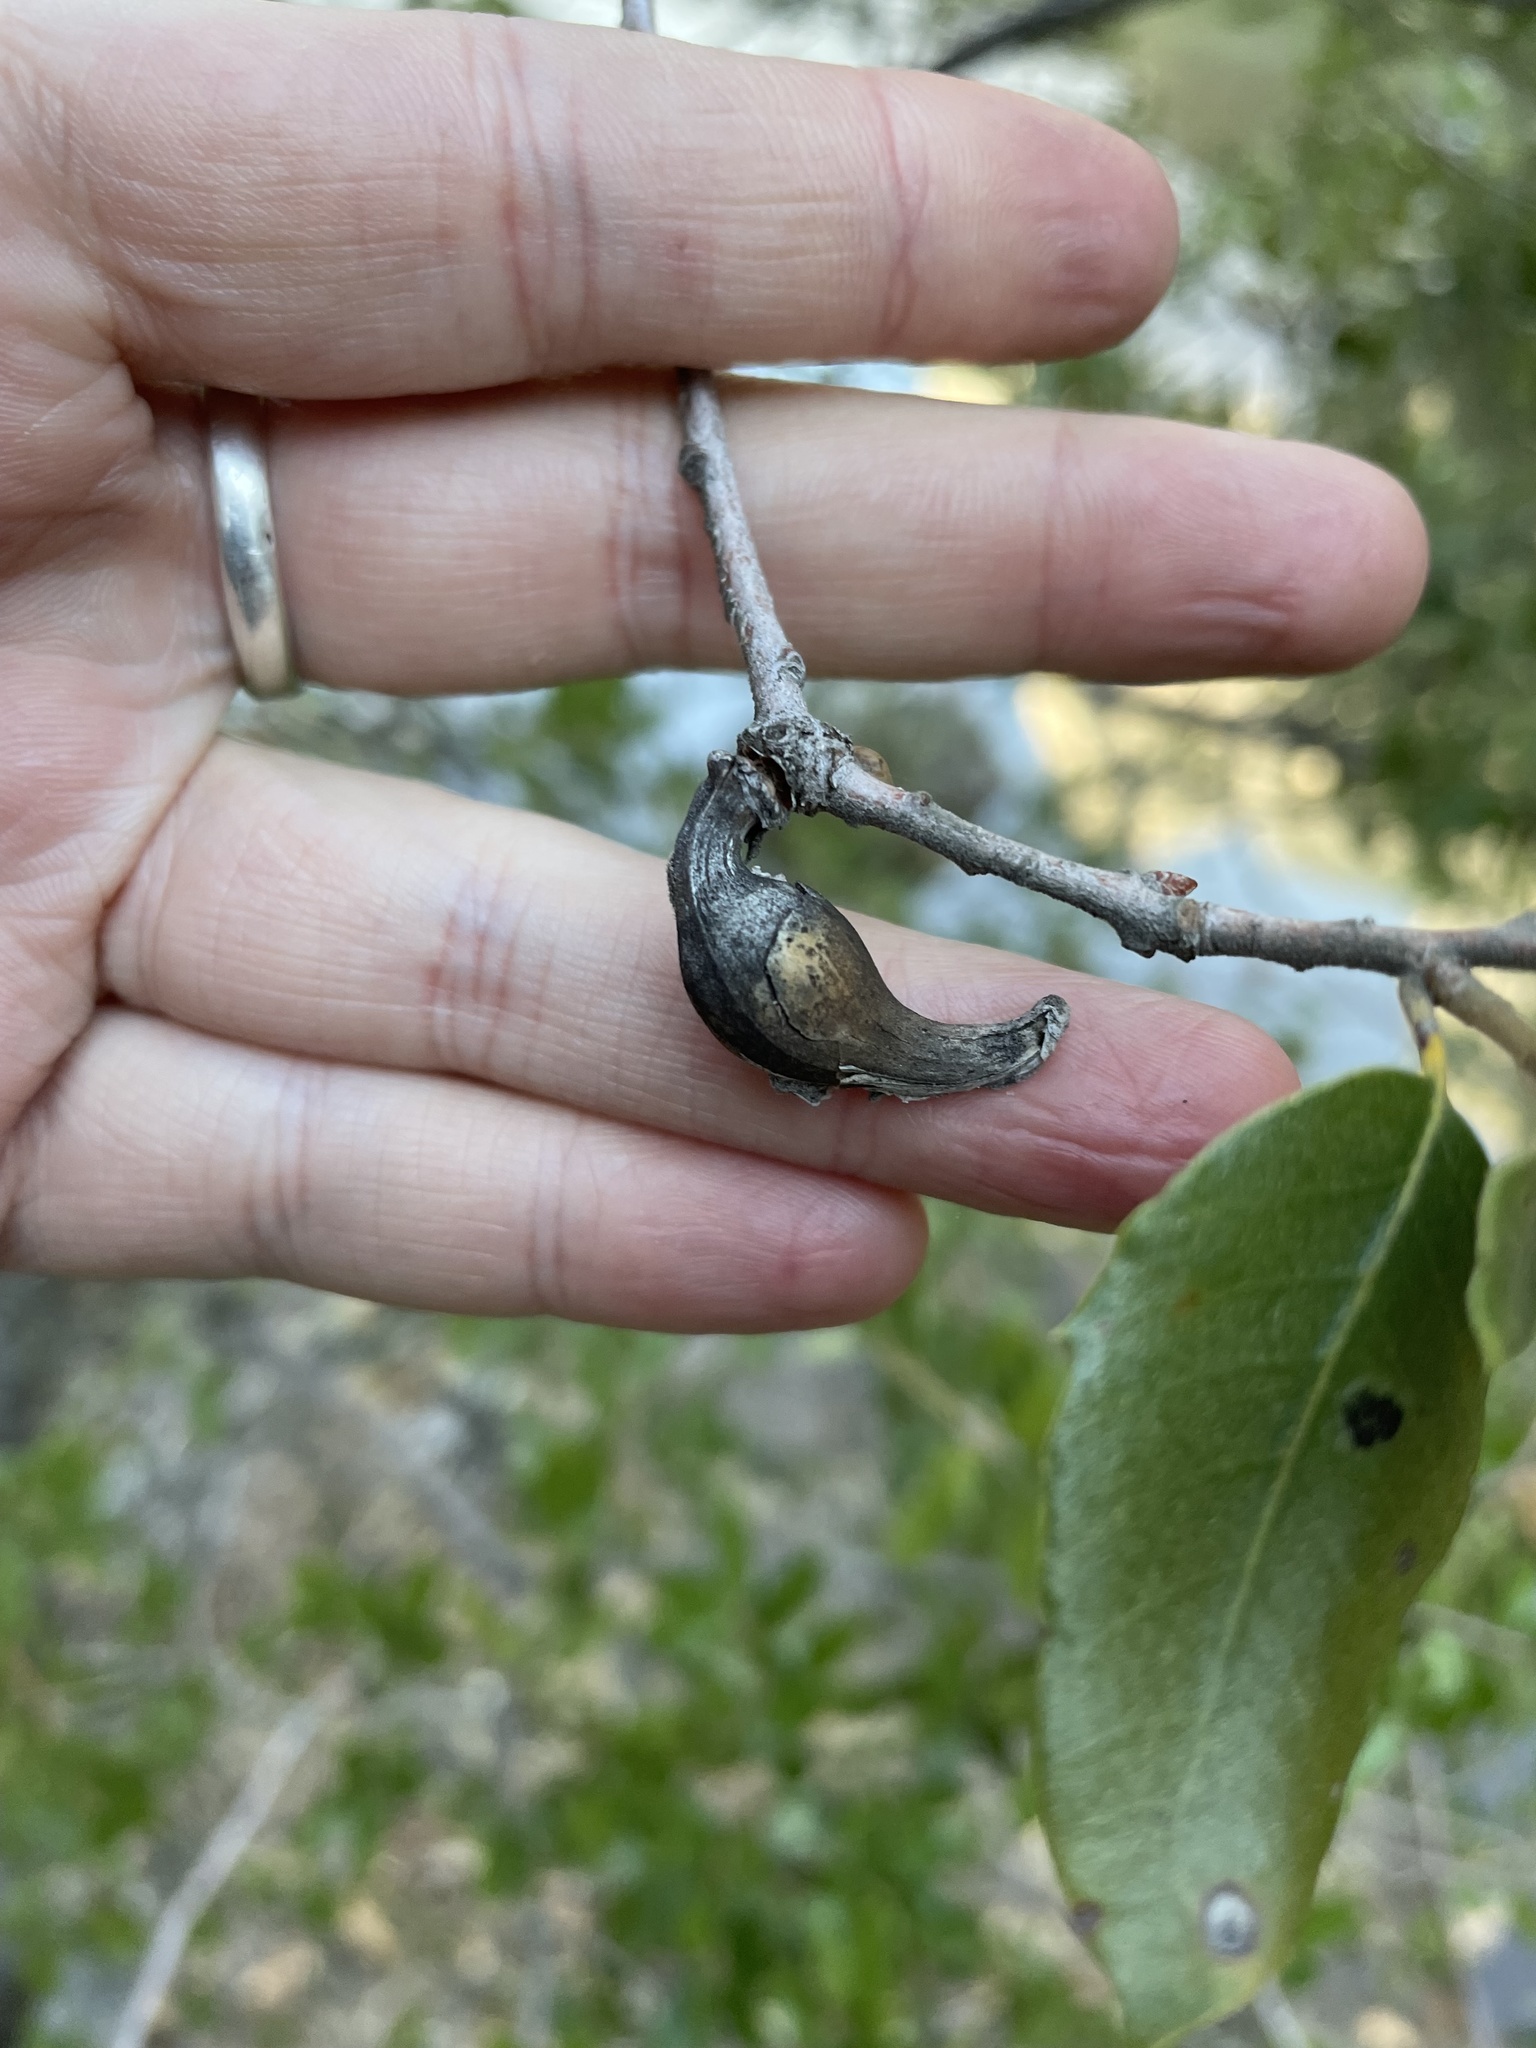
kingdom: Animalia
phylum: Arthropoda
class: Insecta
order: Hymenoptera
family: Cynipidae
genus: Heteroecus
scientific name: Heteroecus
